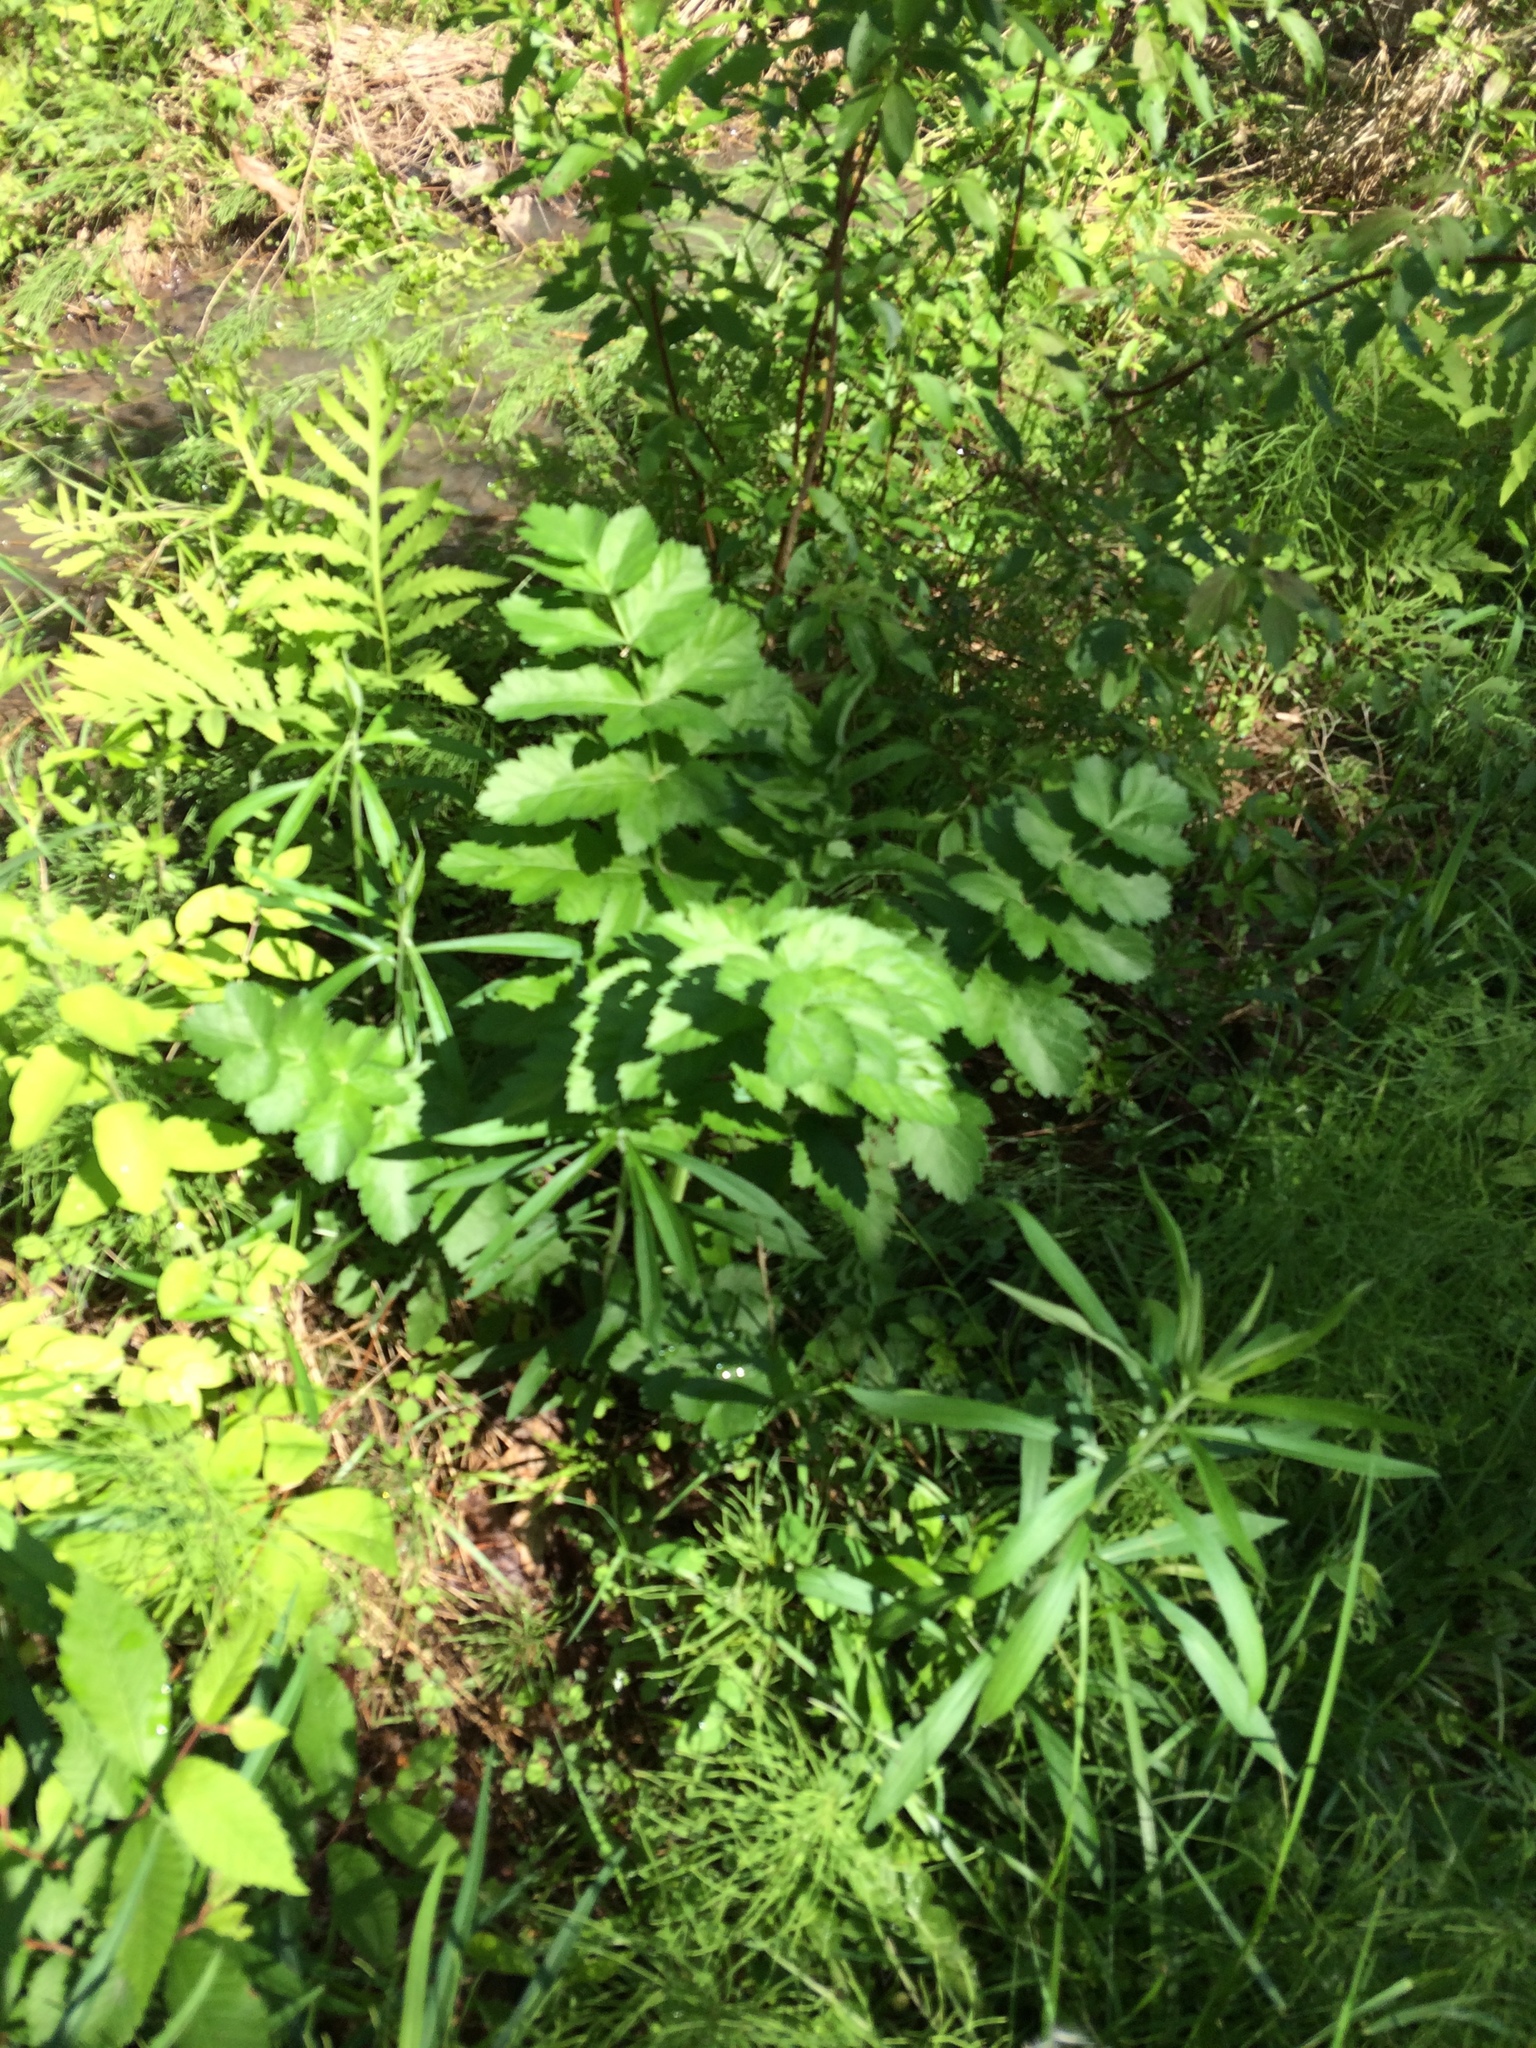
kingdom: Plantae
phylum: Tracheophyta
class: Magnoliopsida
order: Apiales
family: Apiaceae
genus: Pastinaca
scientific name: Pastinaca sativa
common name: Wild parsnip
